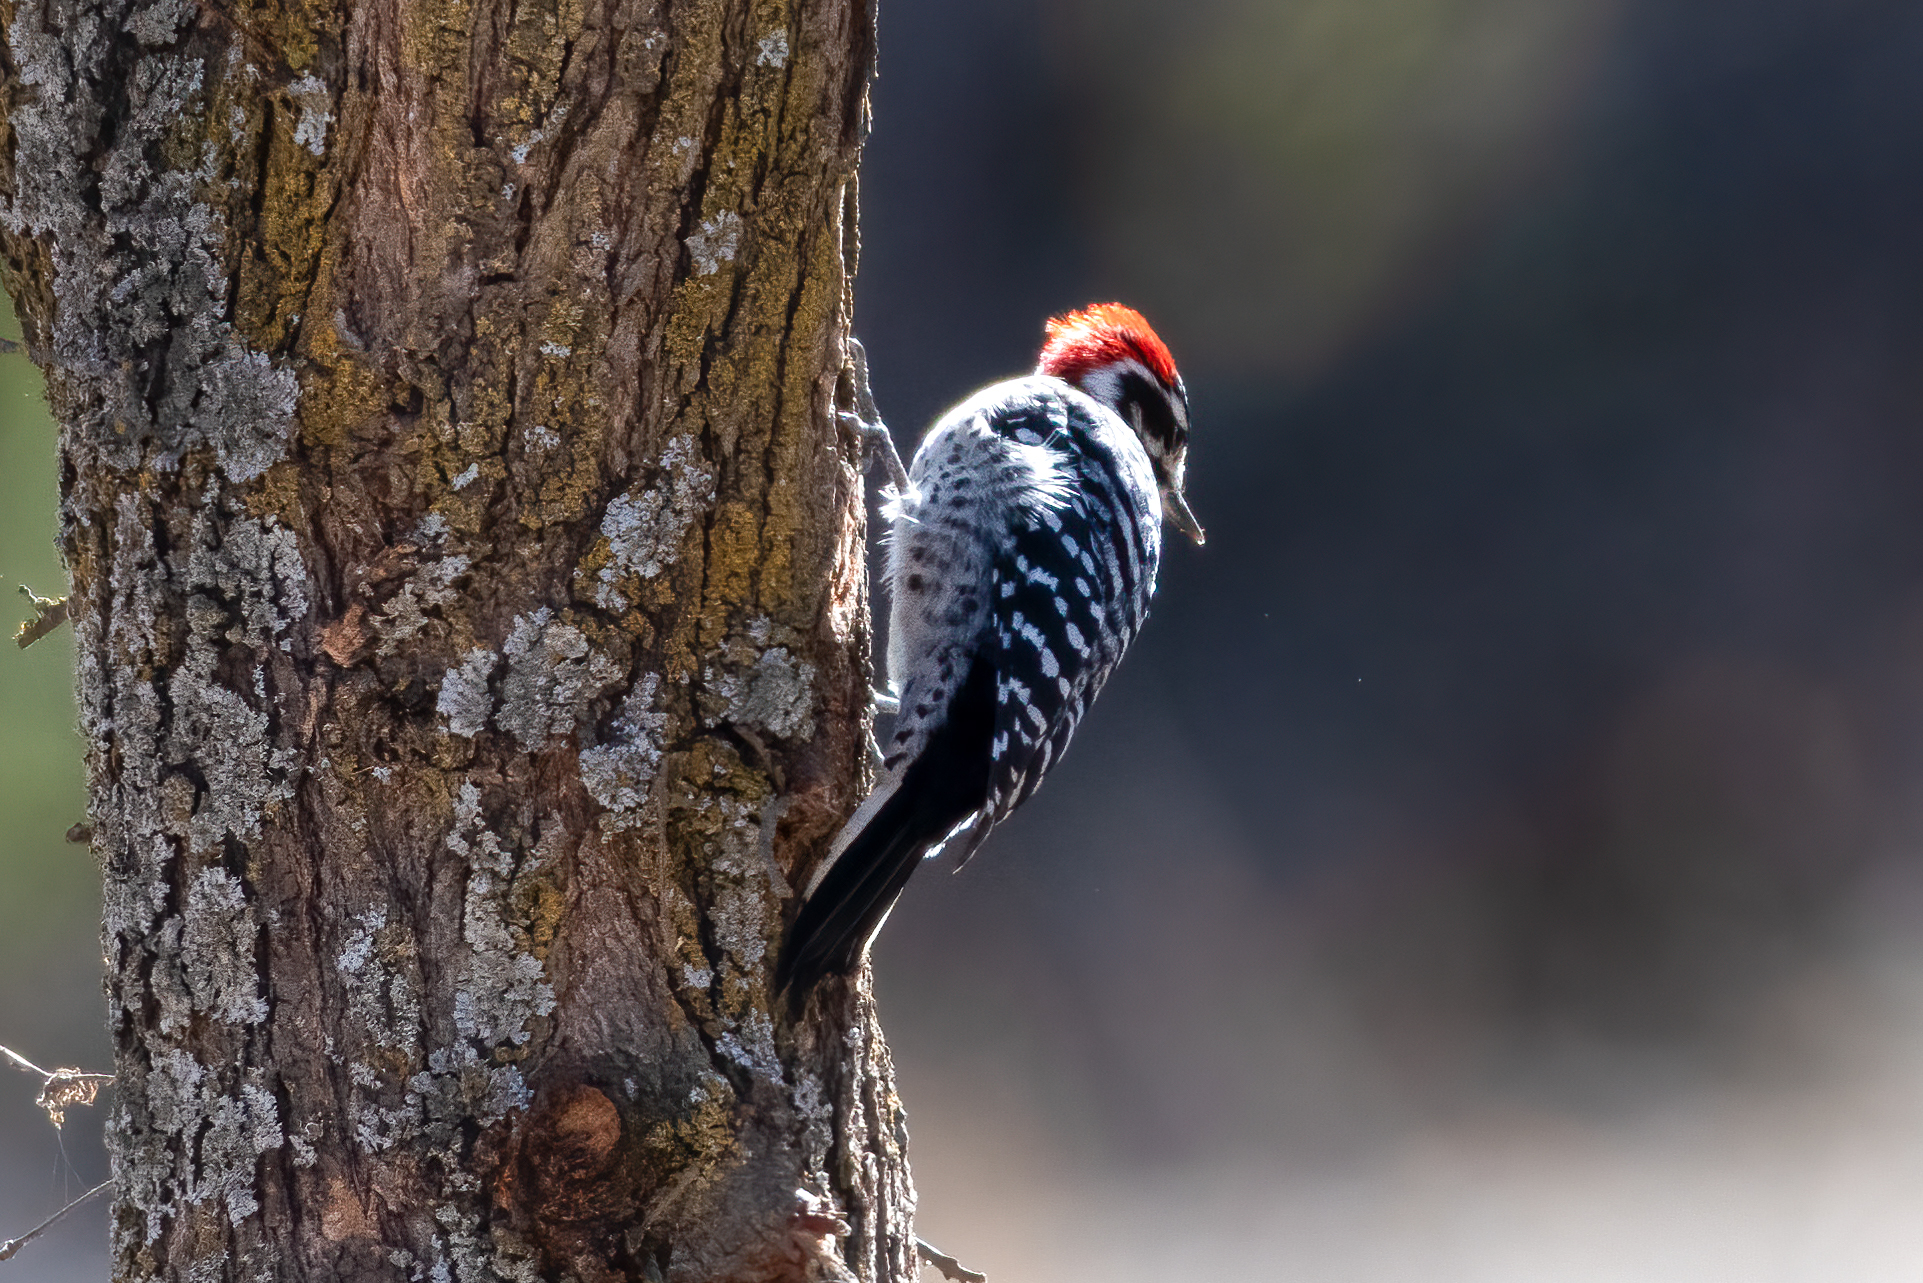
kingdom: Animalia
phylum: Chordata
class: Aves
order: Piciformes
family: Picidae
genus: Dryobates
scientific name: Dryobates nuttallii
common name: Nuttall's woodpecker
